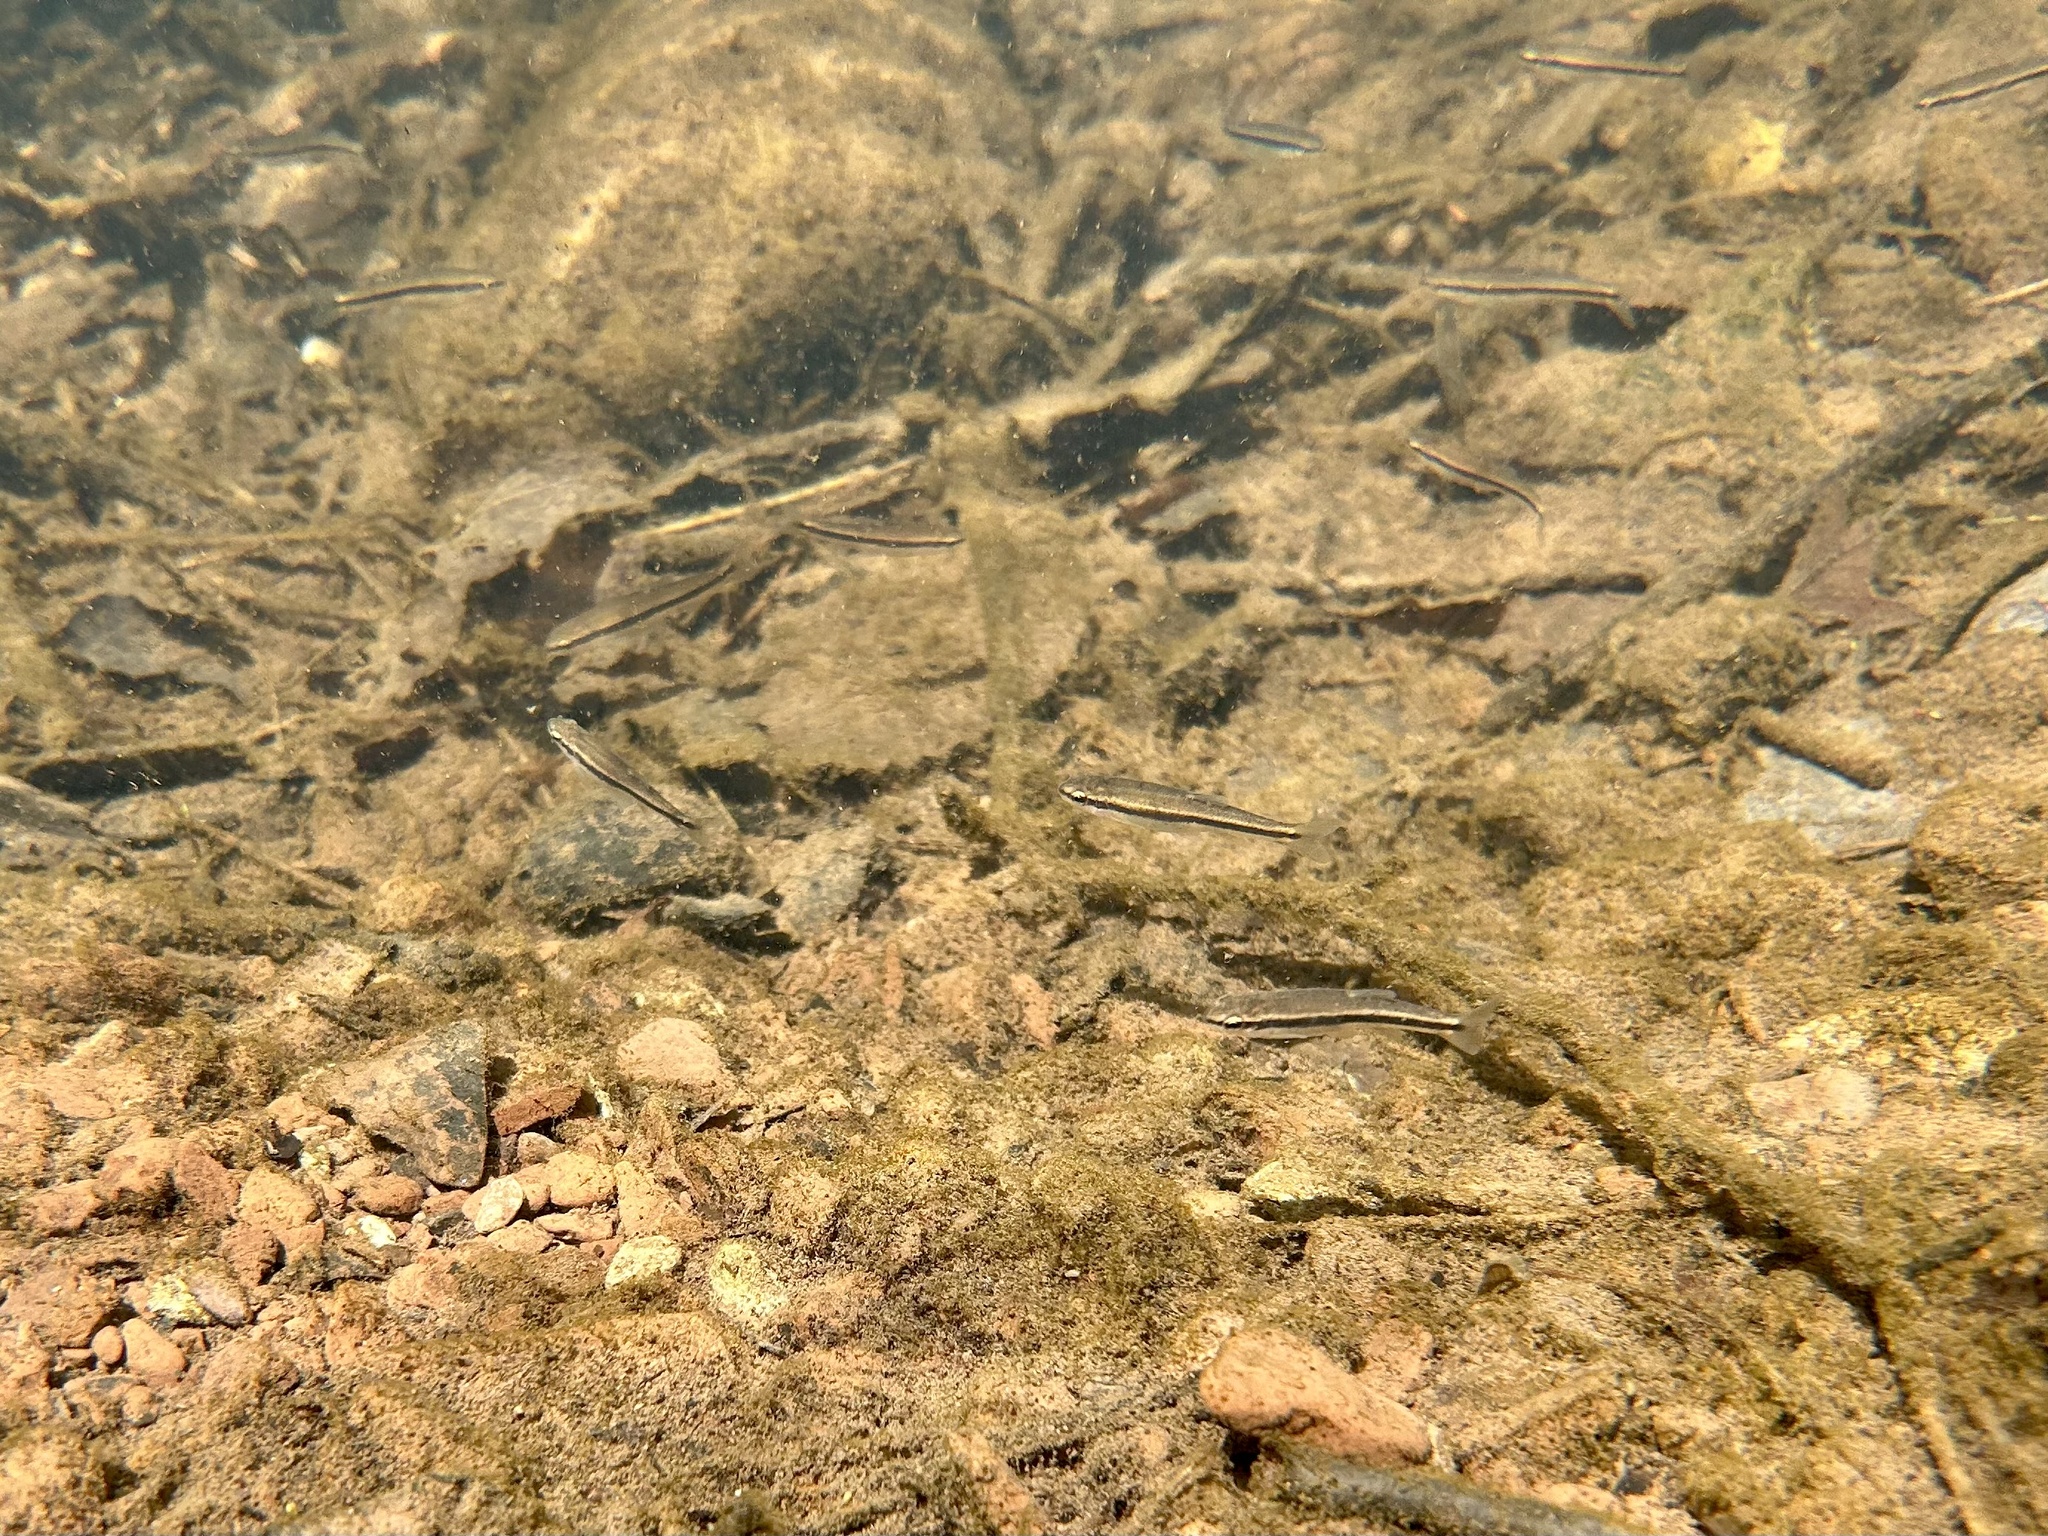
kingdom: Animalia
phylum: Chordata
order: Cypriniformes
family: Cyprinidae
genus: Rhinichthys
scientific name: Rhinichthys atratulus
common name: Eastern blacknose dace
